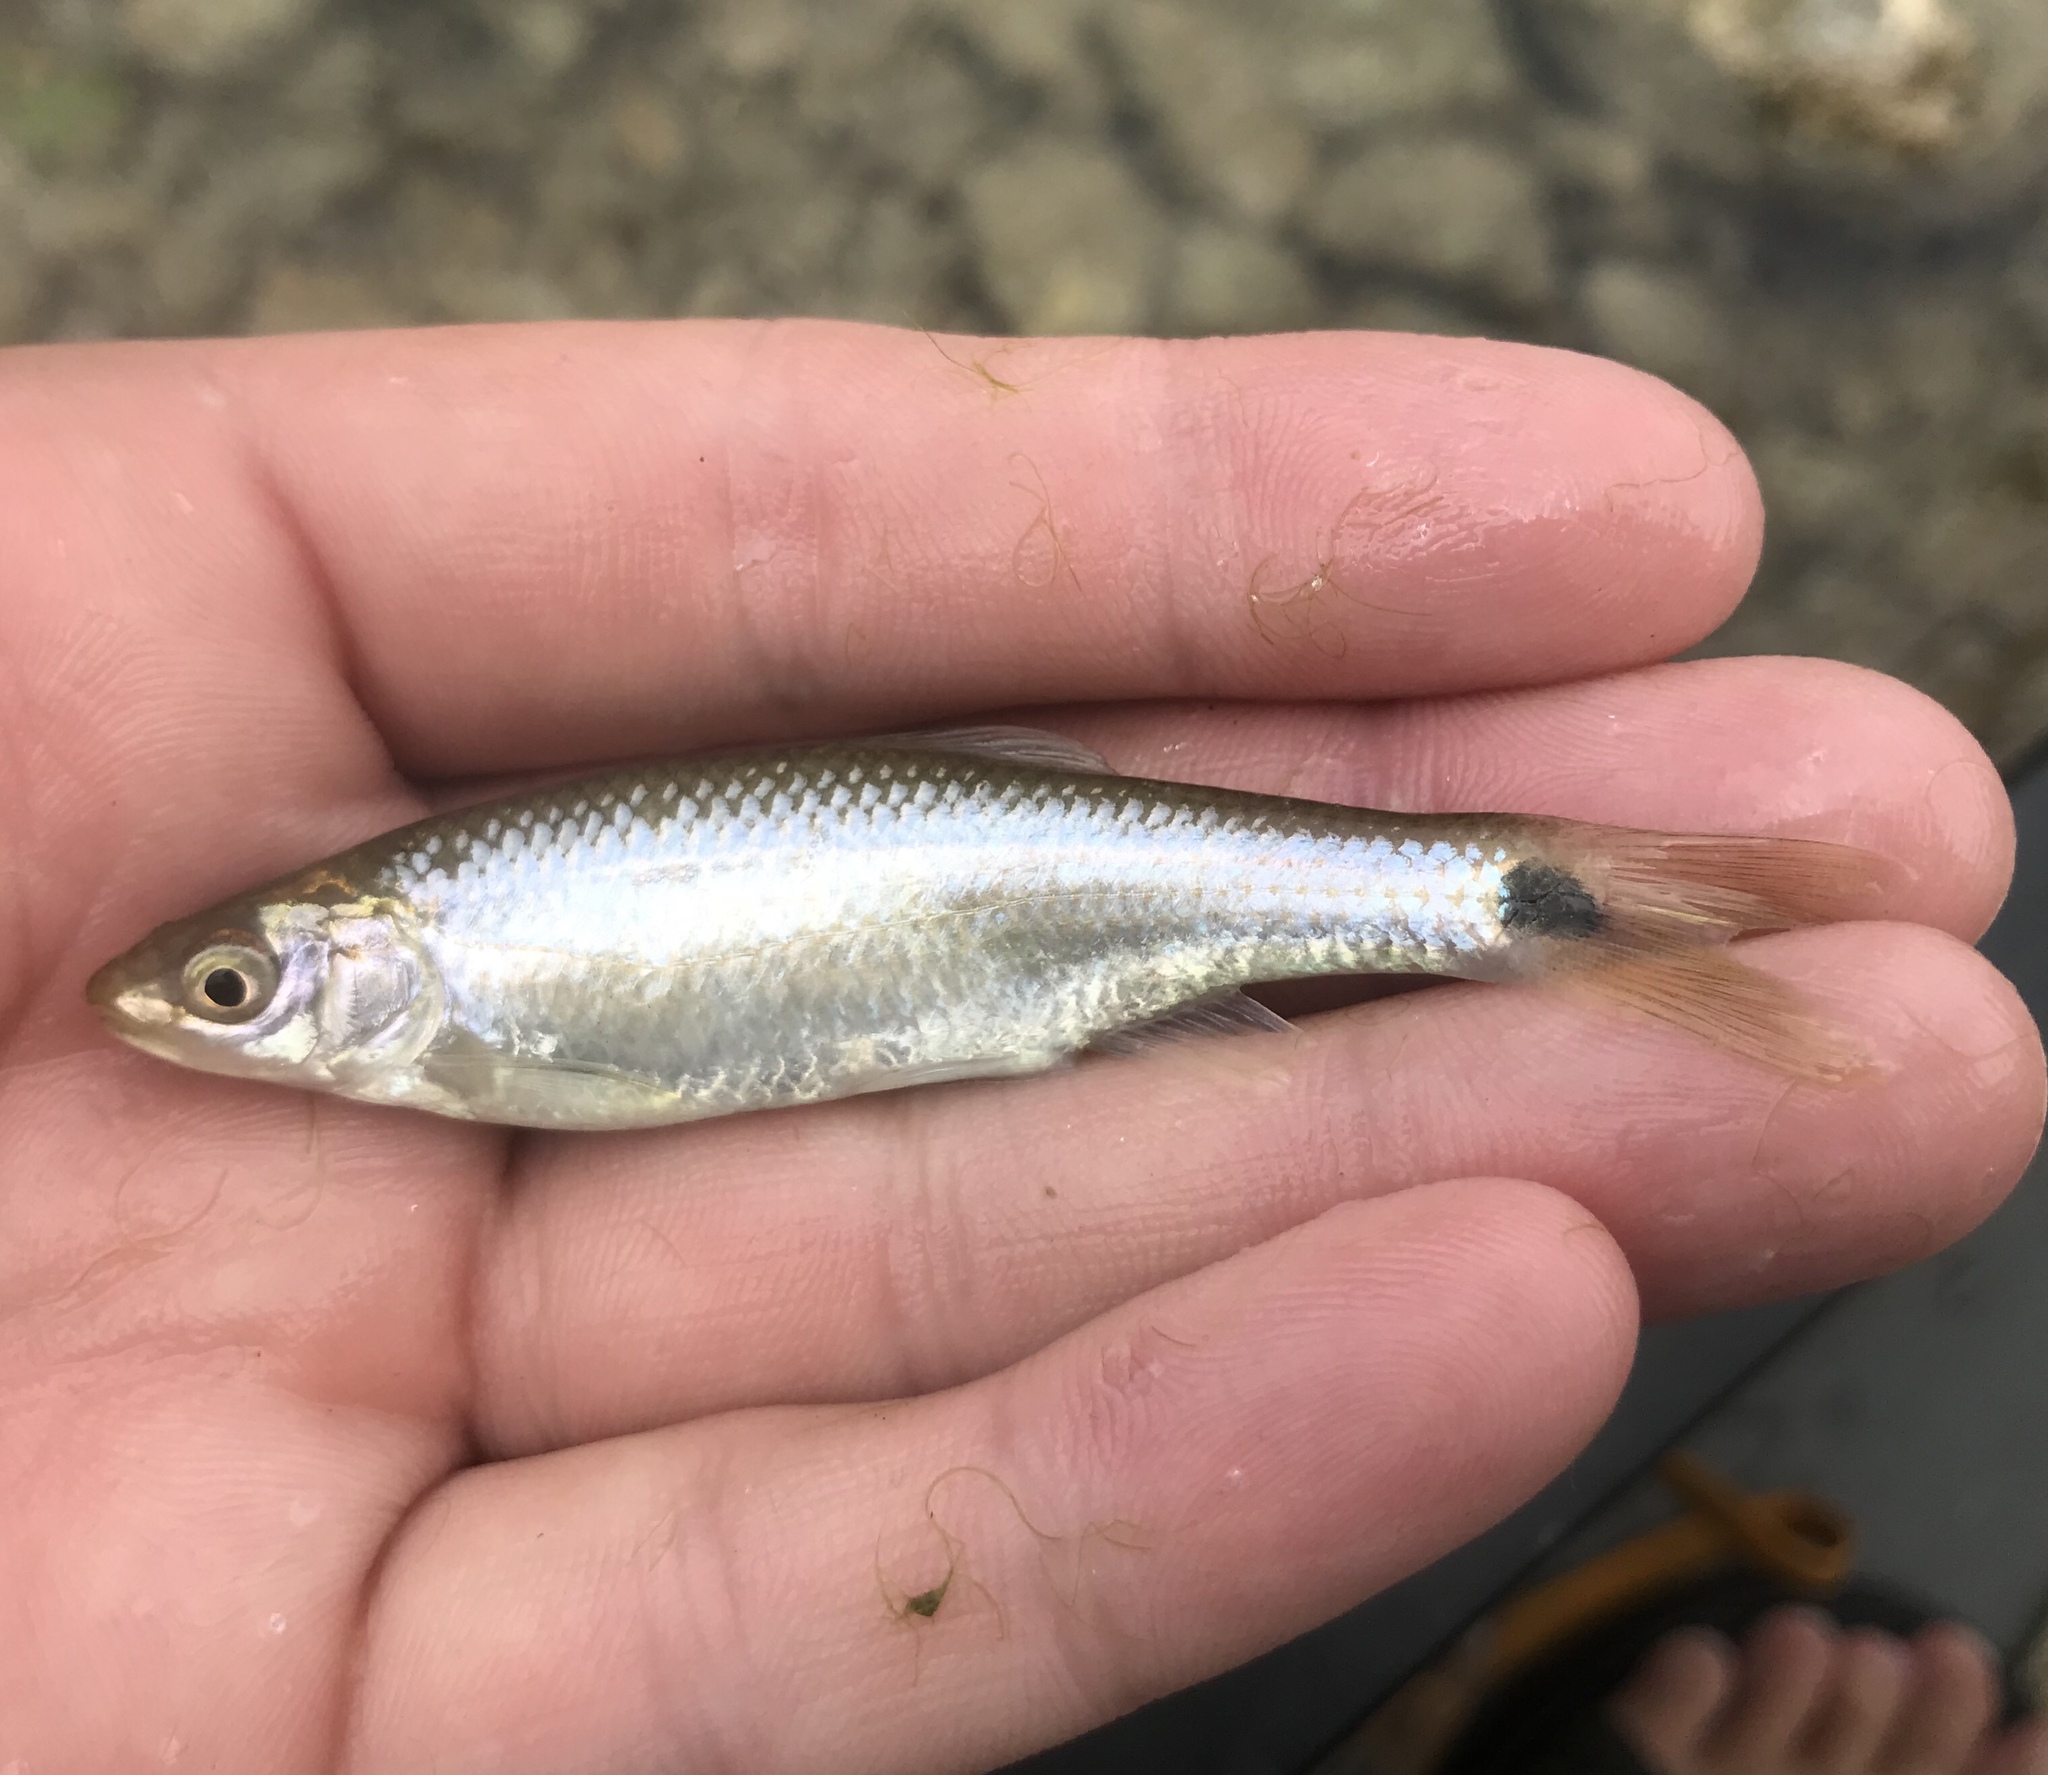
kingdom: Animalia
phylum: Chordata
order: Cypriniformes
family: Cyprinidae
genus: Cyprinella
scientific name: Cyprinella venusta
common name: Blacktail shiner
